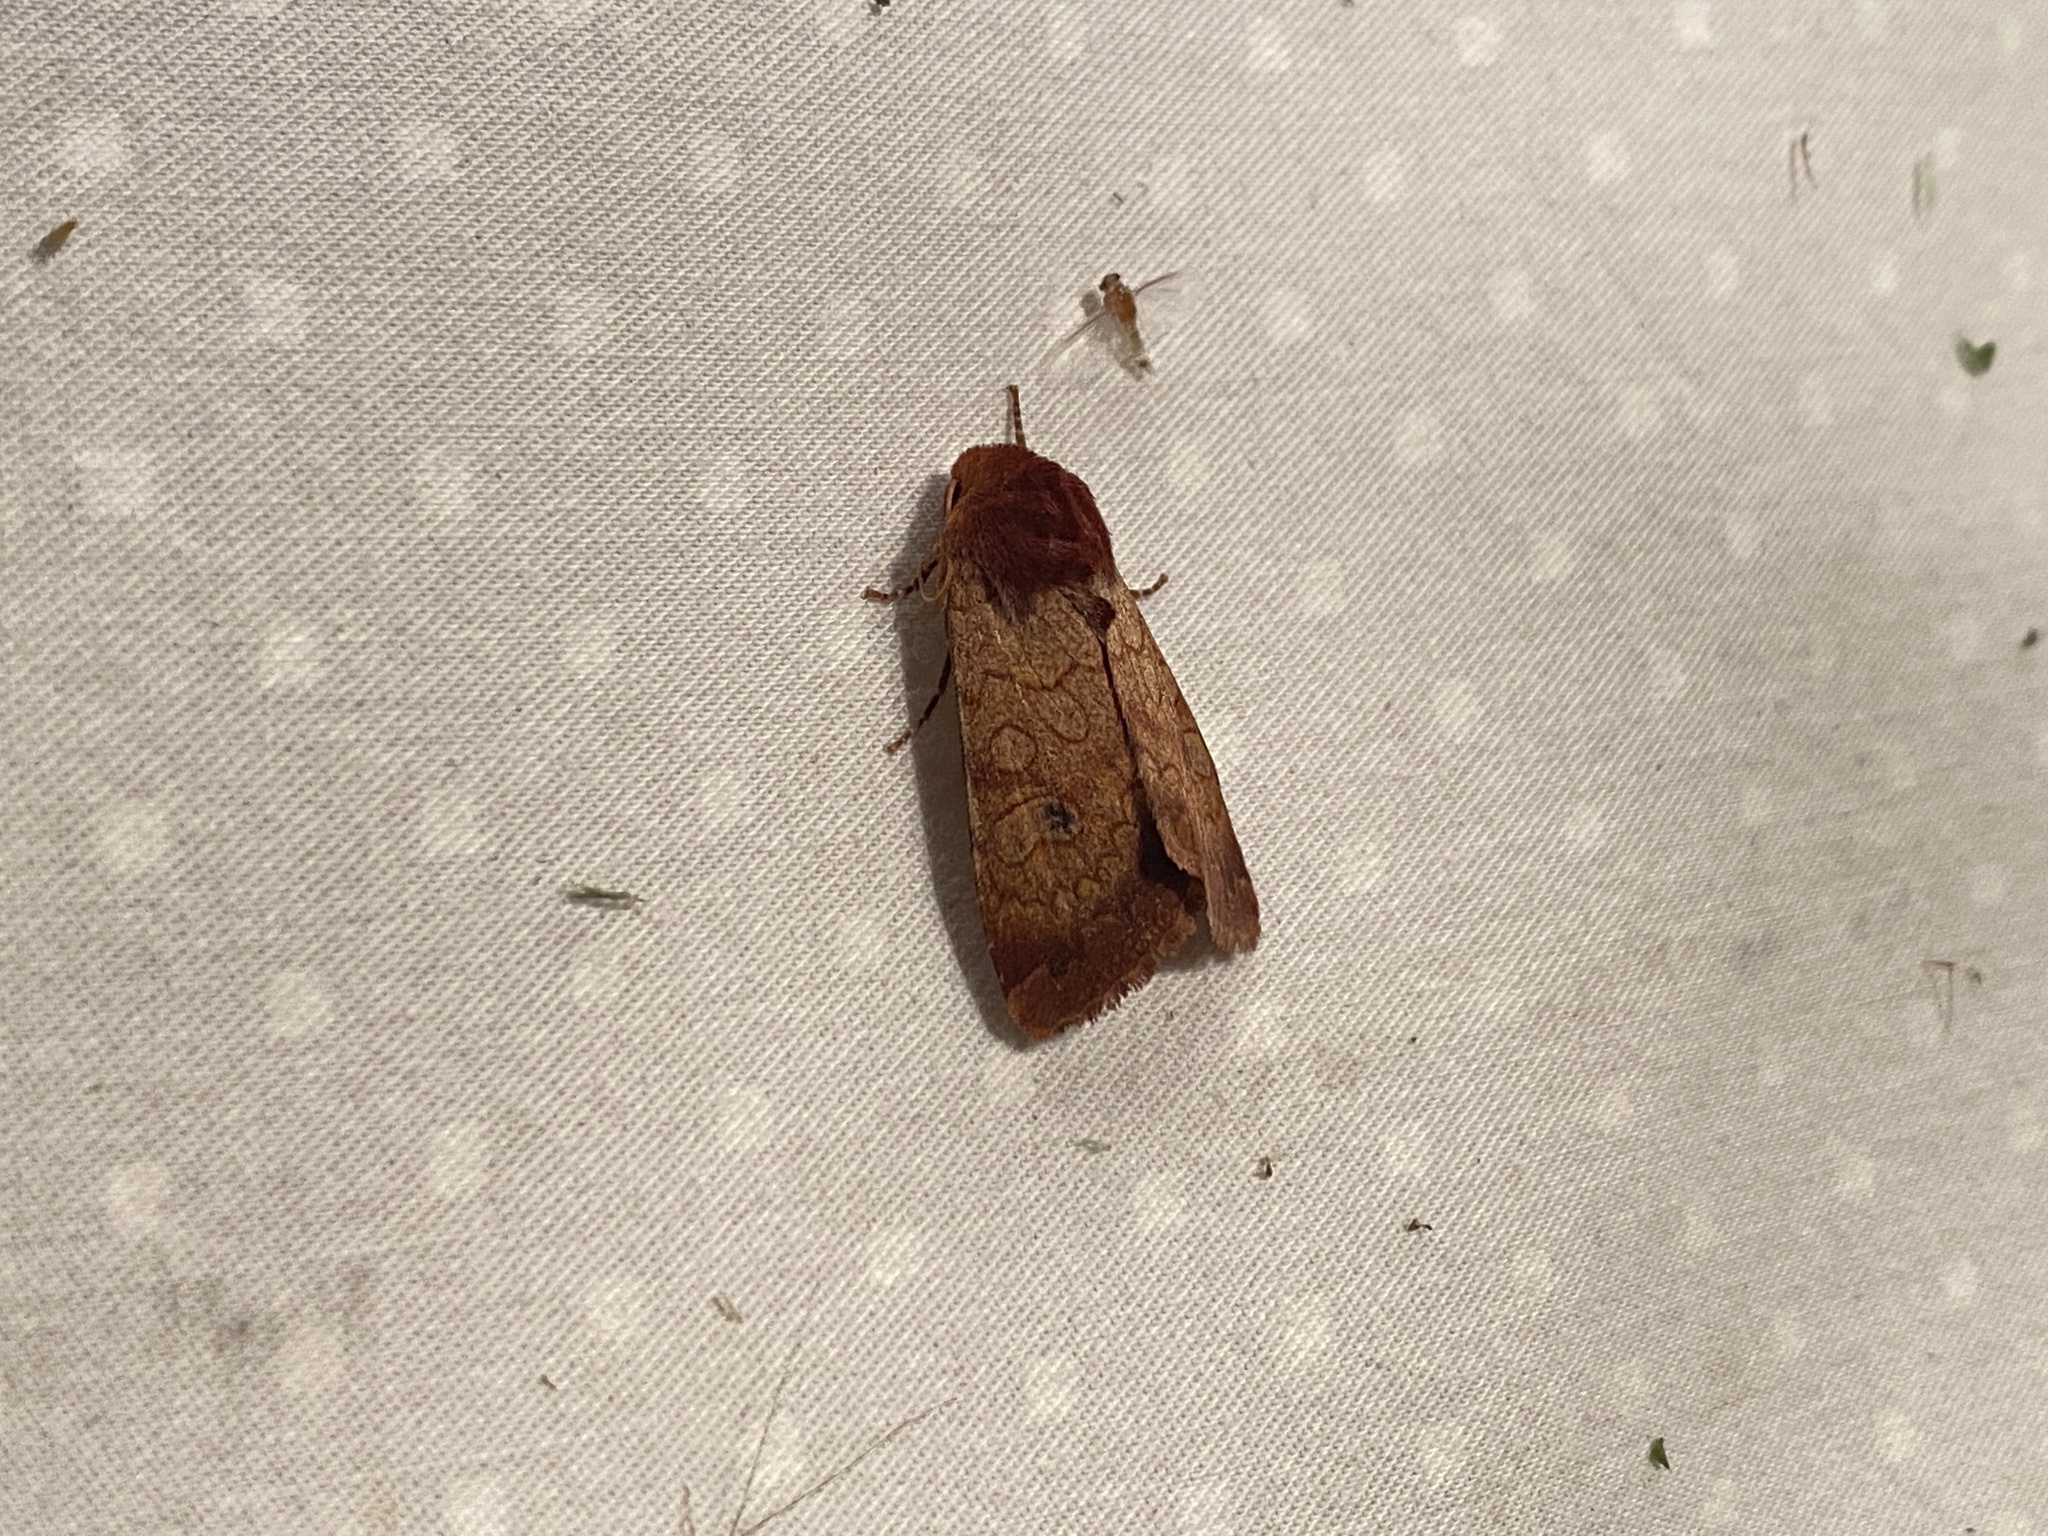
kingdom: Animalia
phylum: Arthropoda
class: Insecta
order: Lepidoptera
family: Noctuidae
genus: Sideridis
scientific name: Sideridis rosea
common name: Rosewing moth
